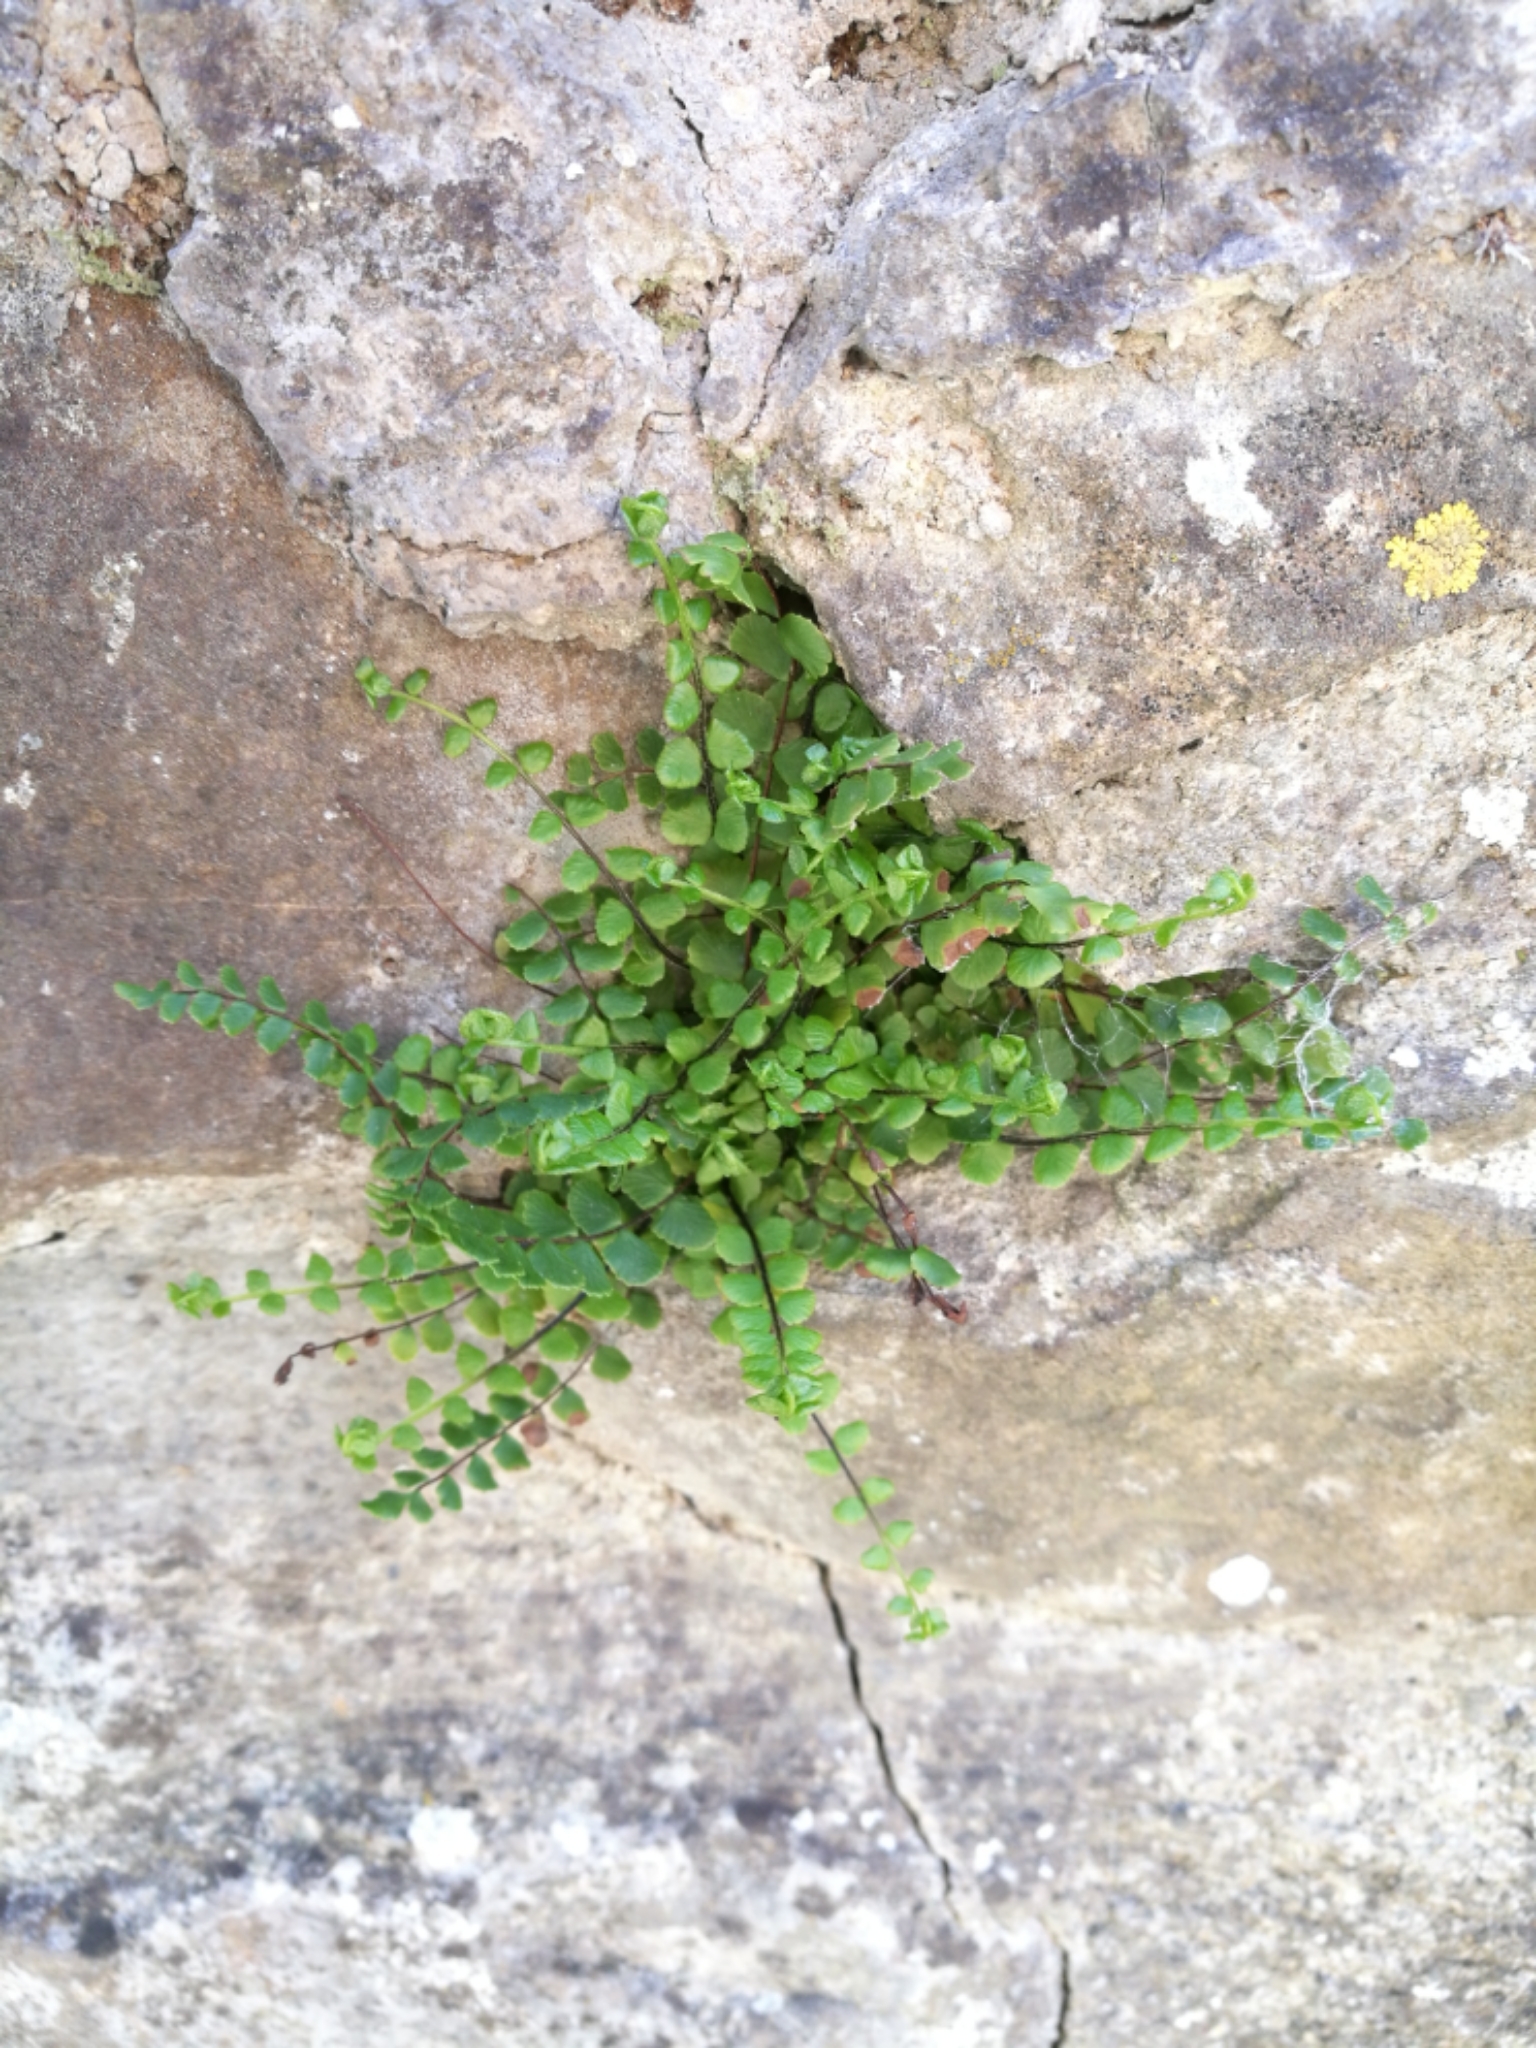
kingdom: Plantae
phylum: Tracheophyta
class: Polypodiopsida
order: Polypodiales
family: Aspleniaceae
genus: Asplenium
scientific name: Asplenium trichomanes
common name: Maidenhair spleenwort
